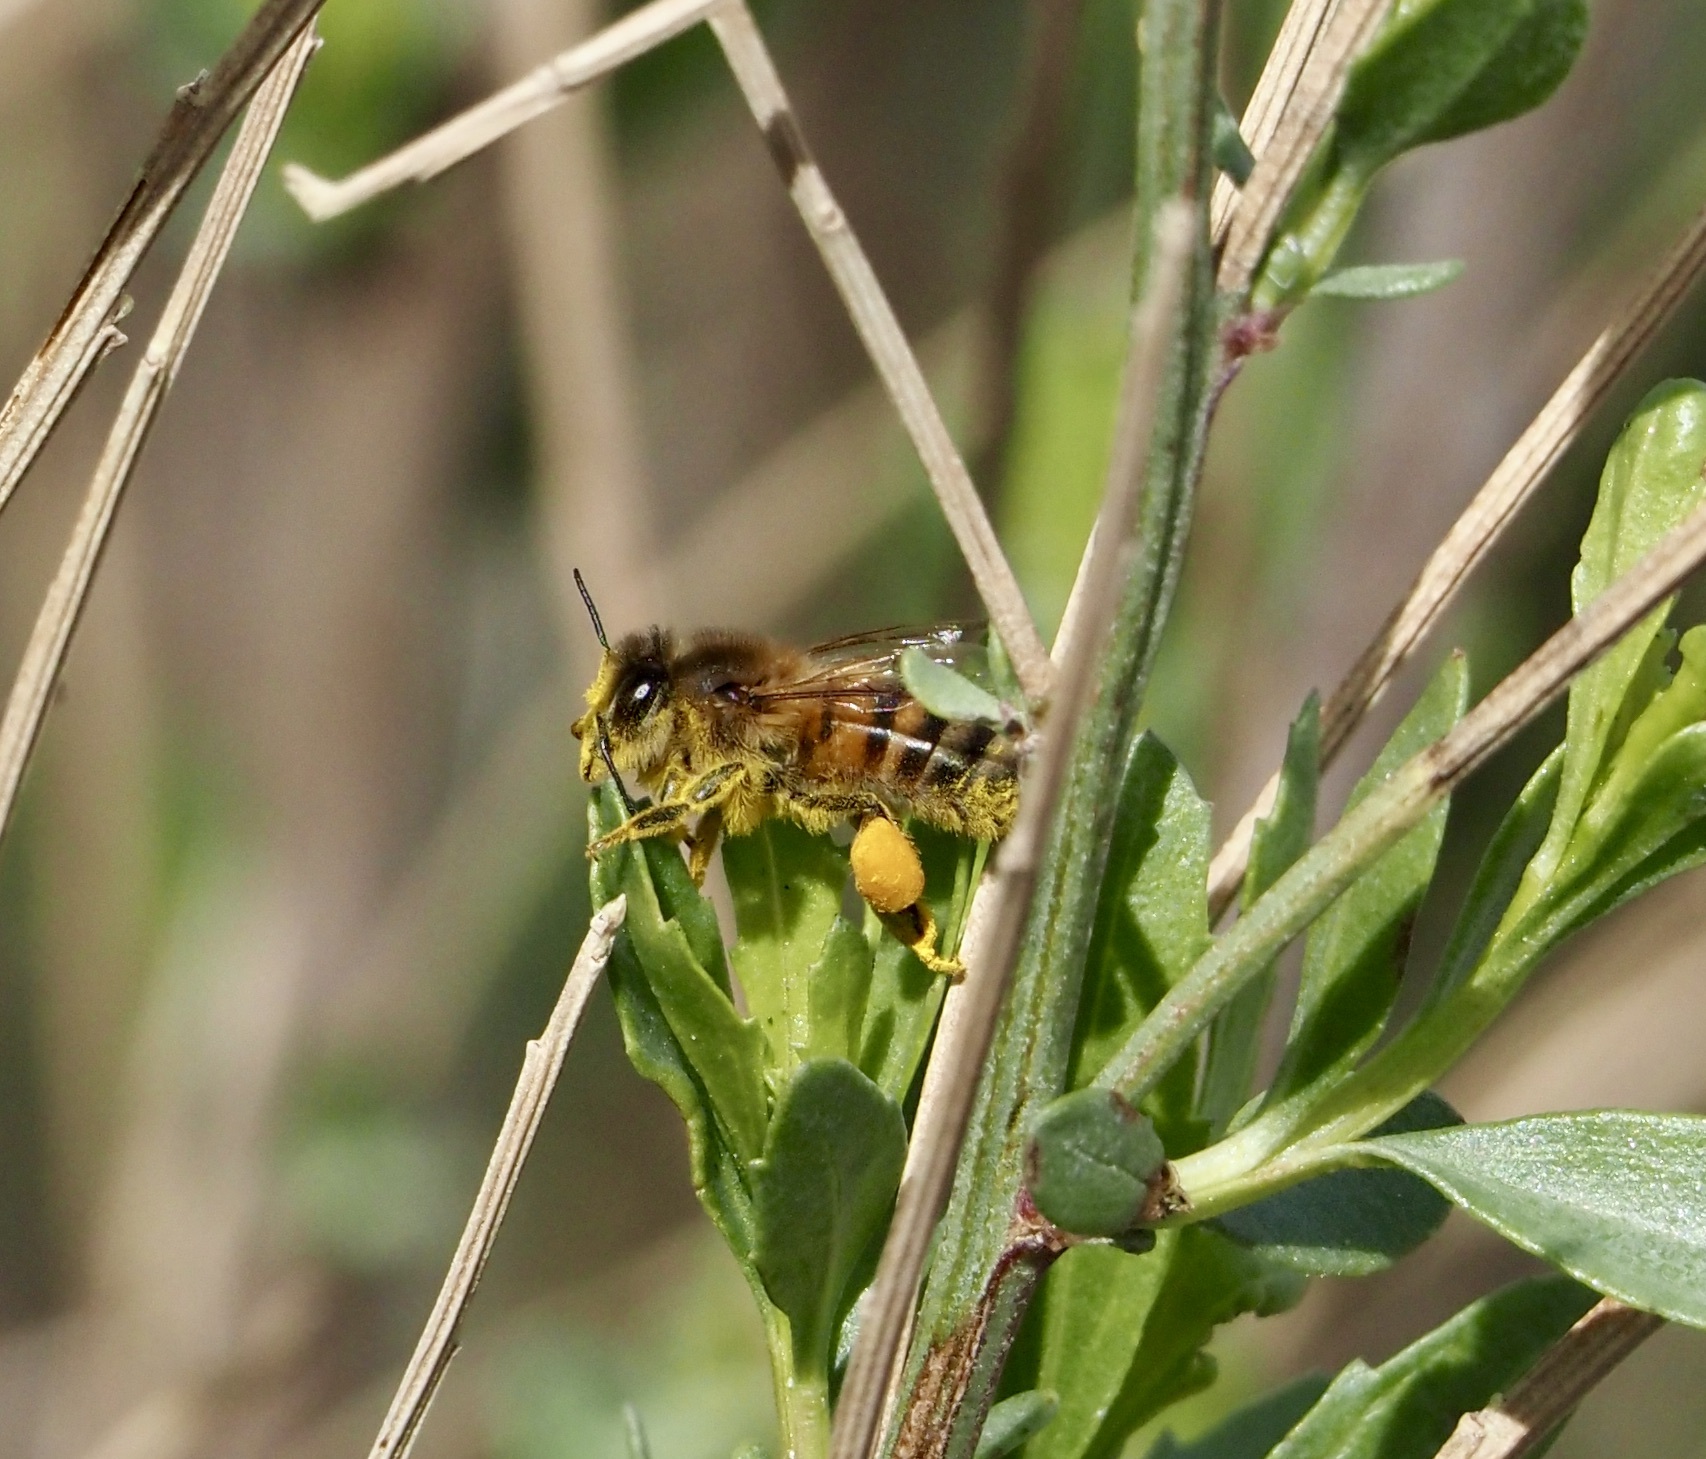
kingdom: Animalia
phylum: Arthropoda
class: Insecta
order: Hymenoptera
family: Apidae
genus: Apis
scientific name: Apis mellifera
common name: Honey bee
